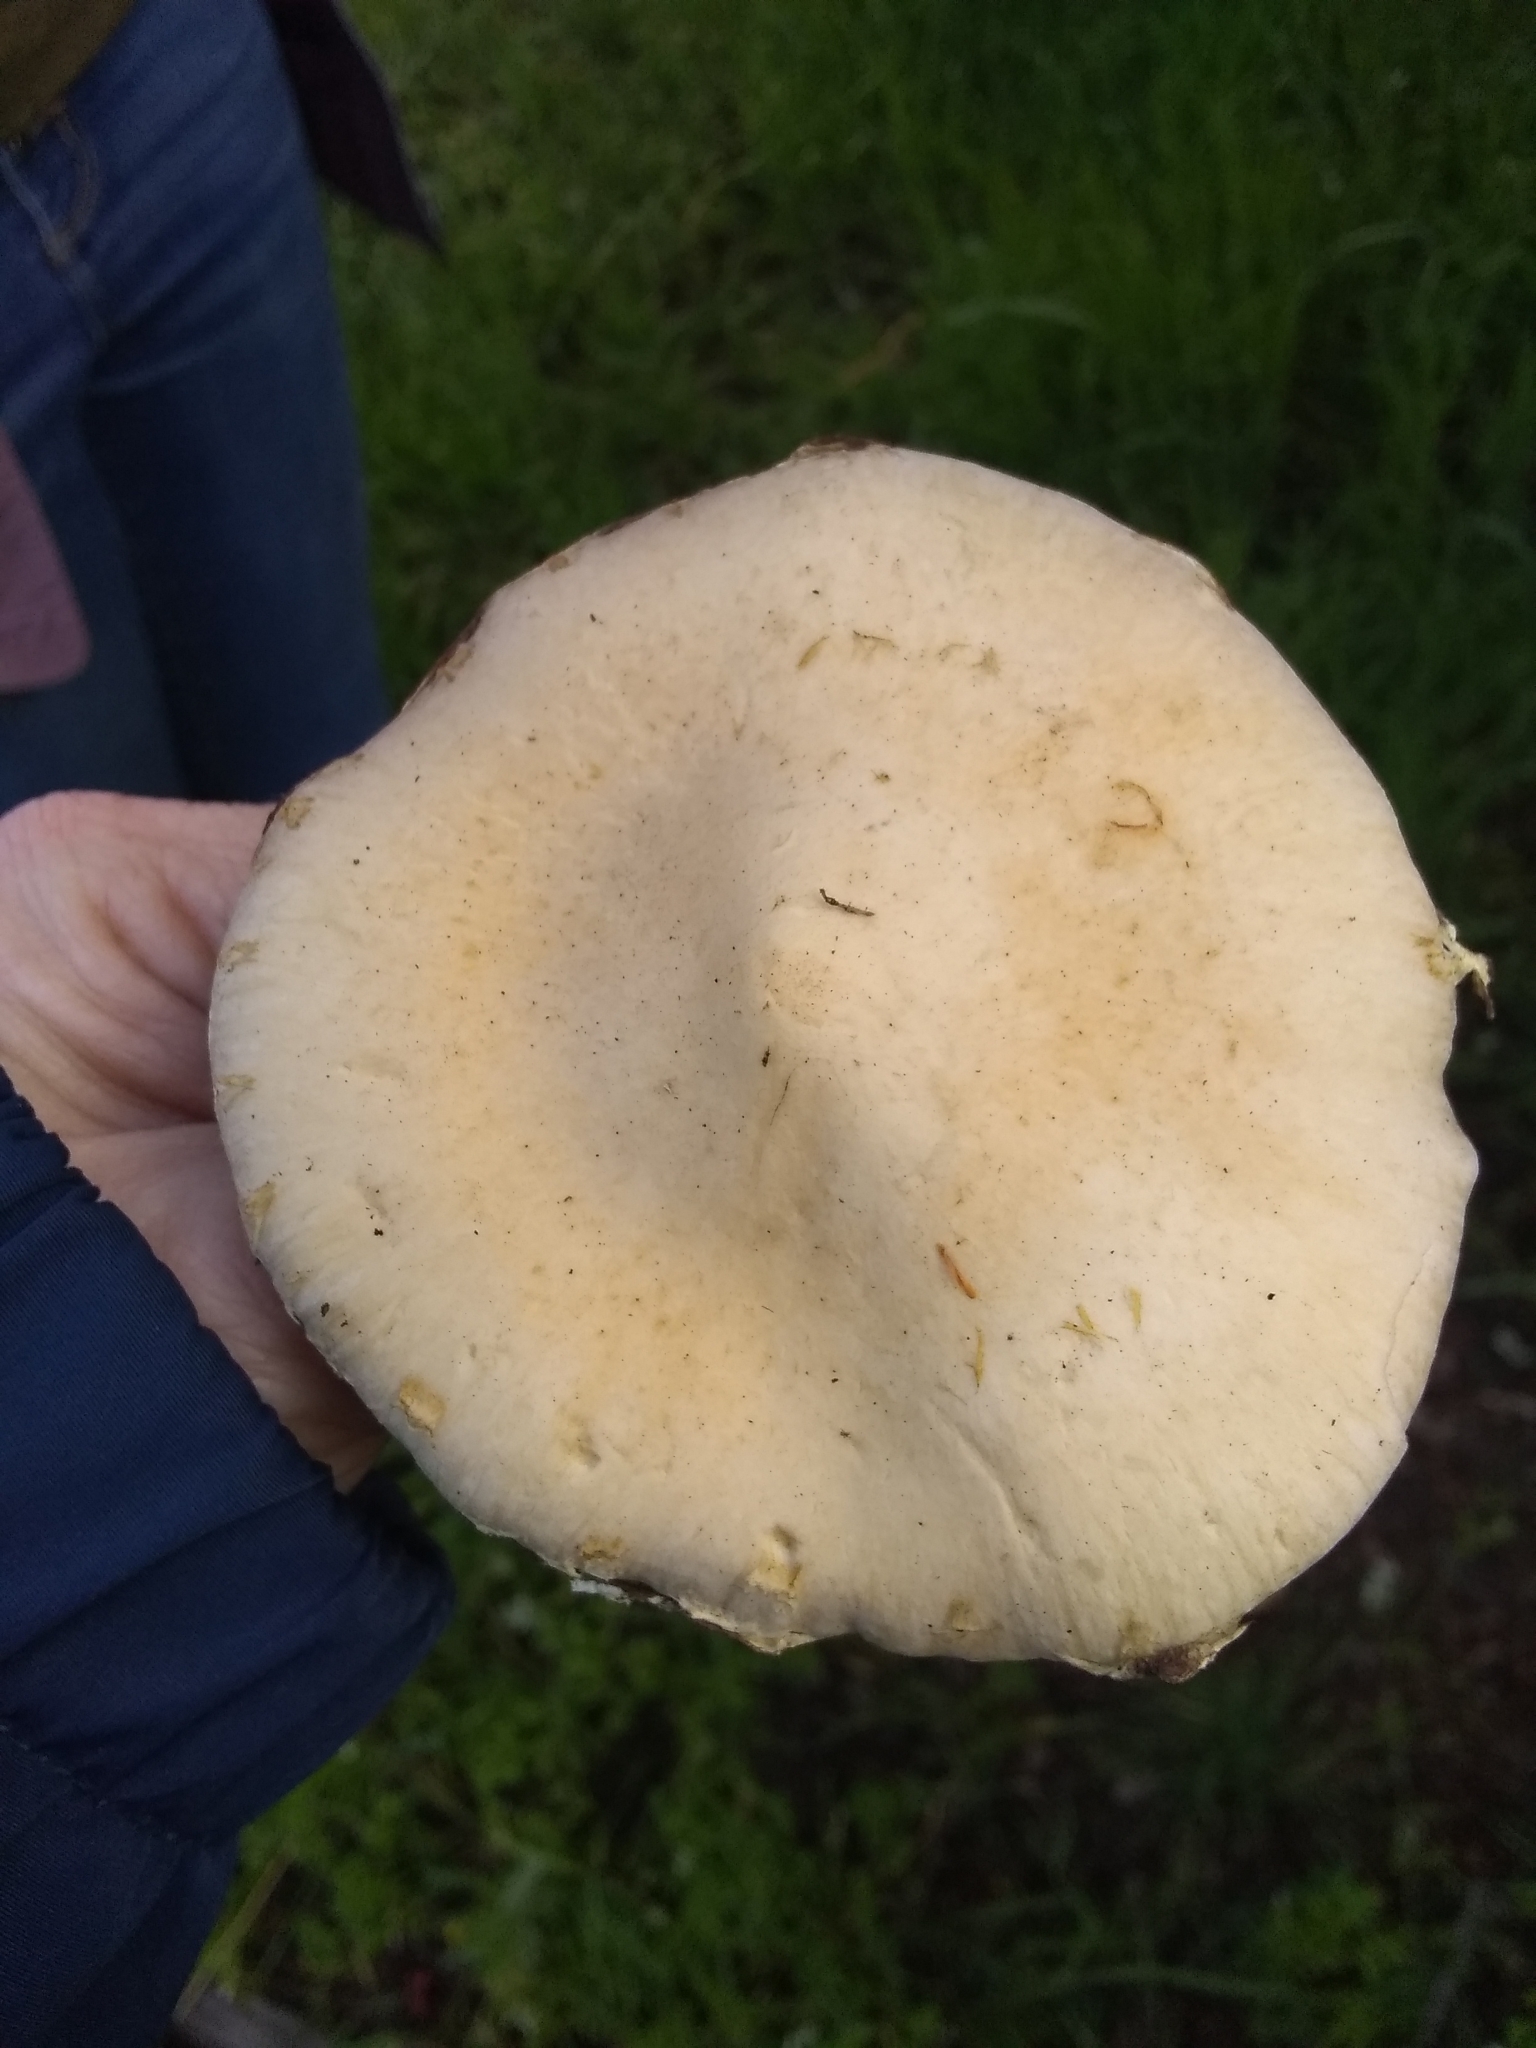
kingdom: Fungi
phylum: Basidiomycota
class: Agaricomycetes
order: Agaricales
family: Strophariaceae
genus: Leratiomyces
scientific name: Leratiomyces percevalii
